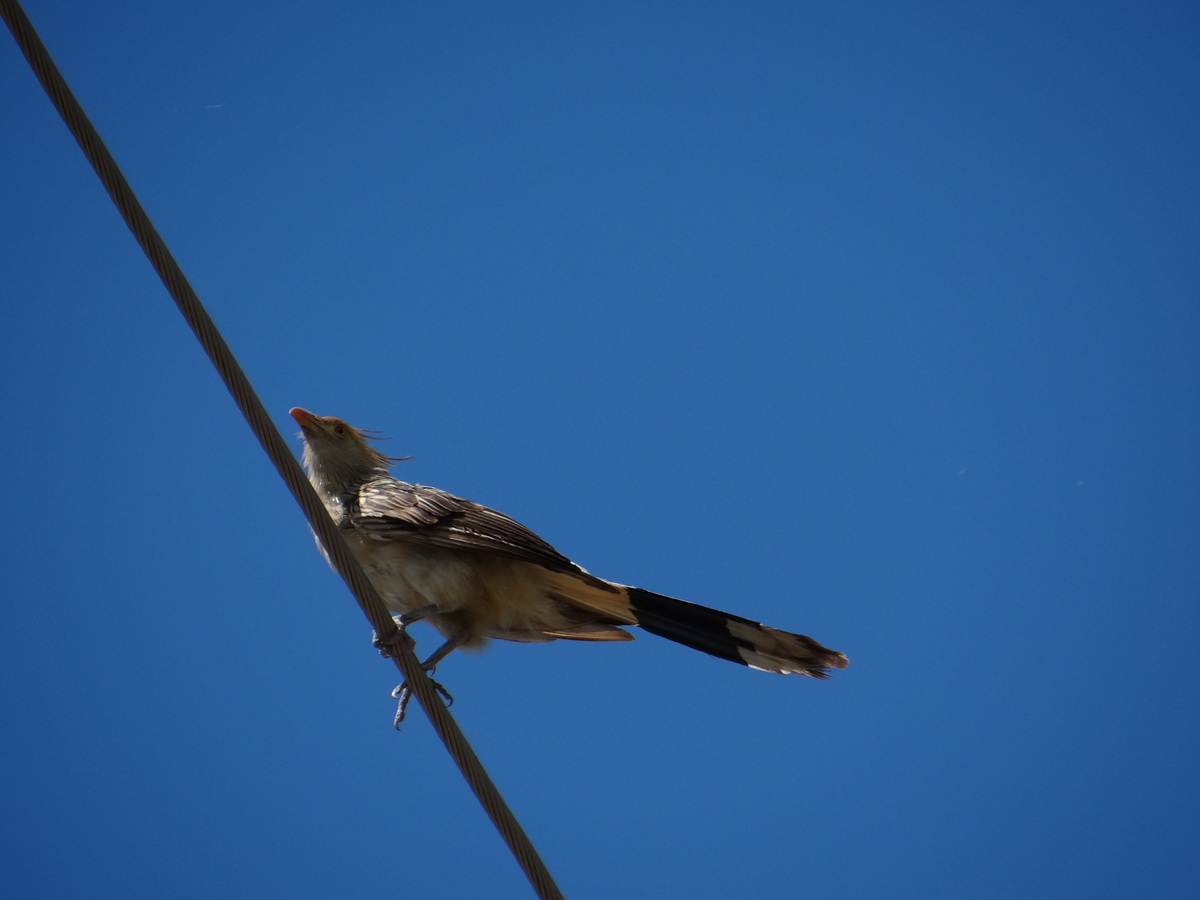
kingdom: Animalia
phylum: Chordata
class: Aves
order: Cuculiformes
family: Cuculidae
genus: Guira
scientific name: Guira guira
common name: Guira cuckoo
